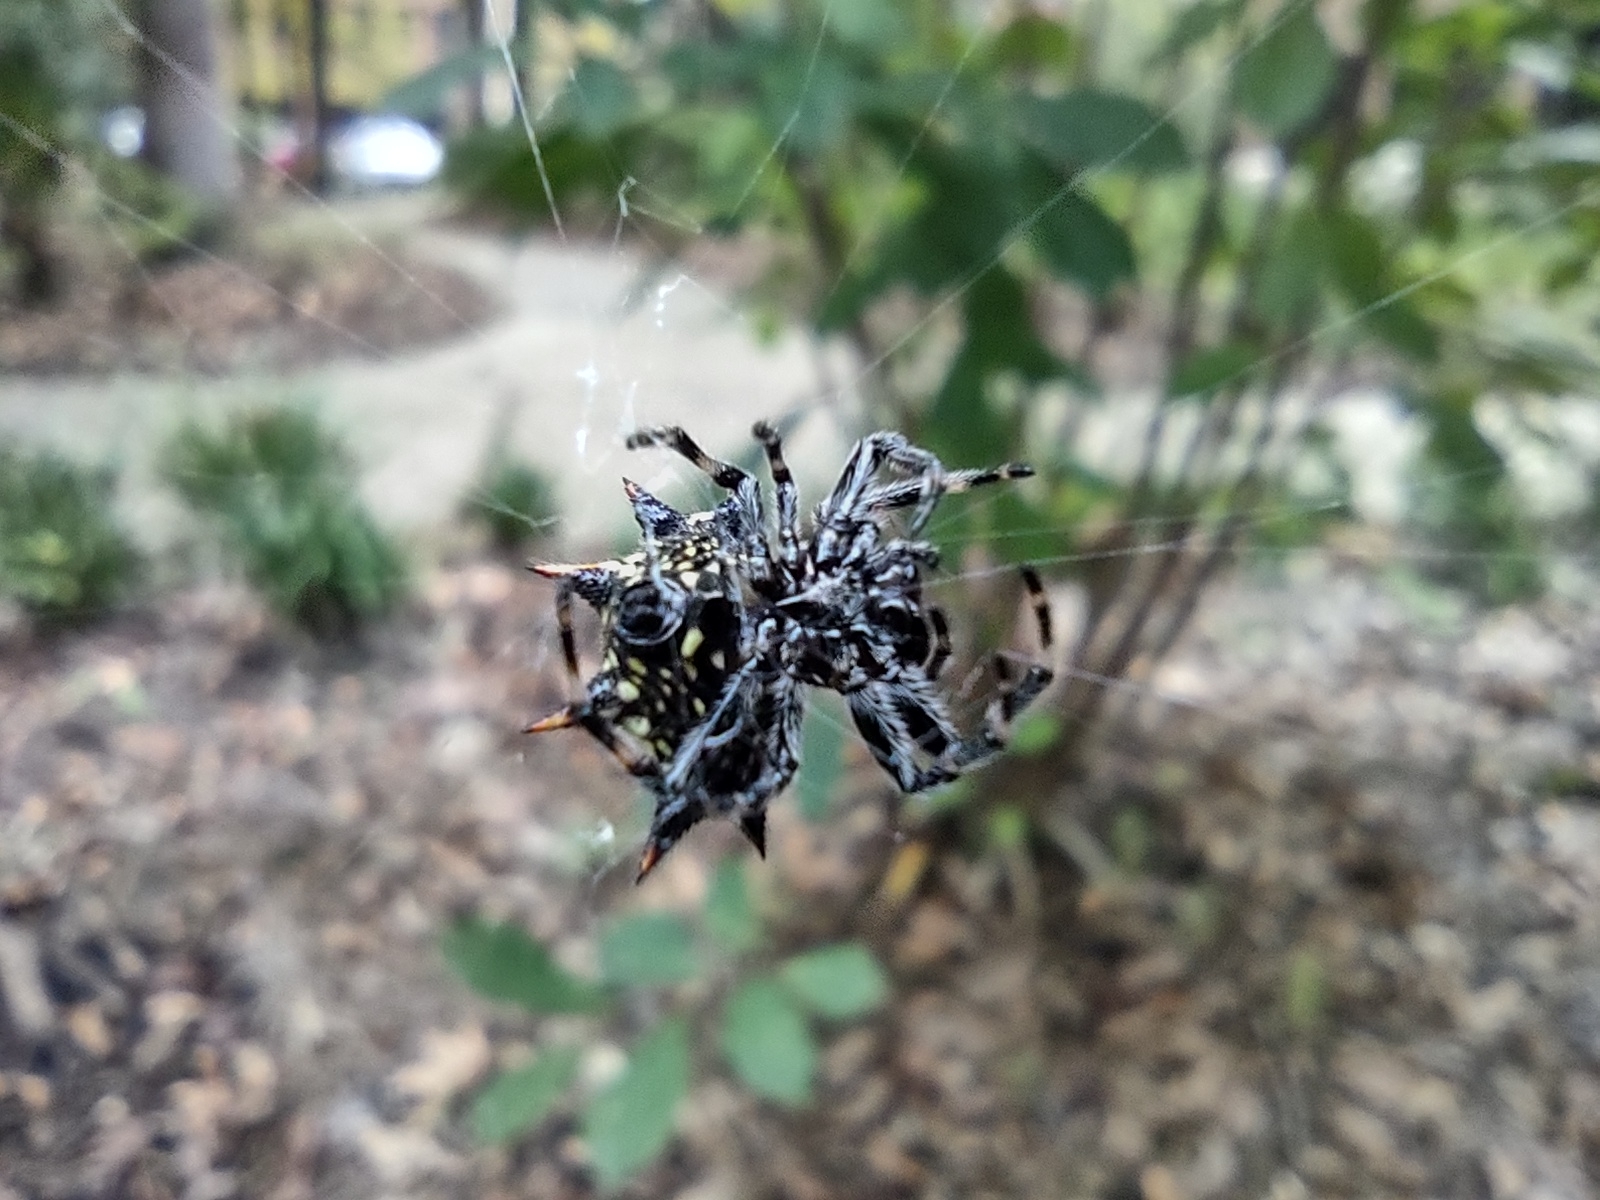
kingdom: Animalia
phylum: Arthropoda
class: Arachnida
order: Araneae
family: Araneidae
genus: Gasteracantha
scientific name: Gasteracantha cancriformis
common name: Orb weavers
